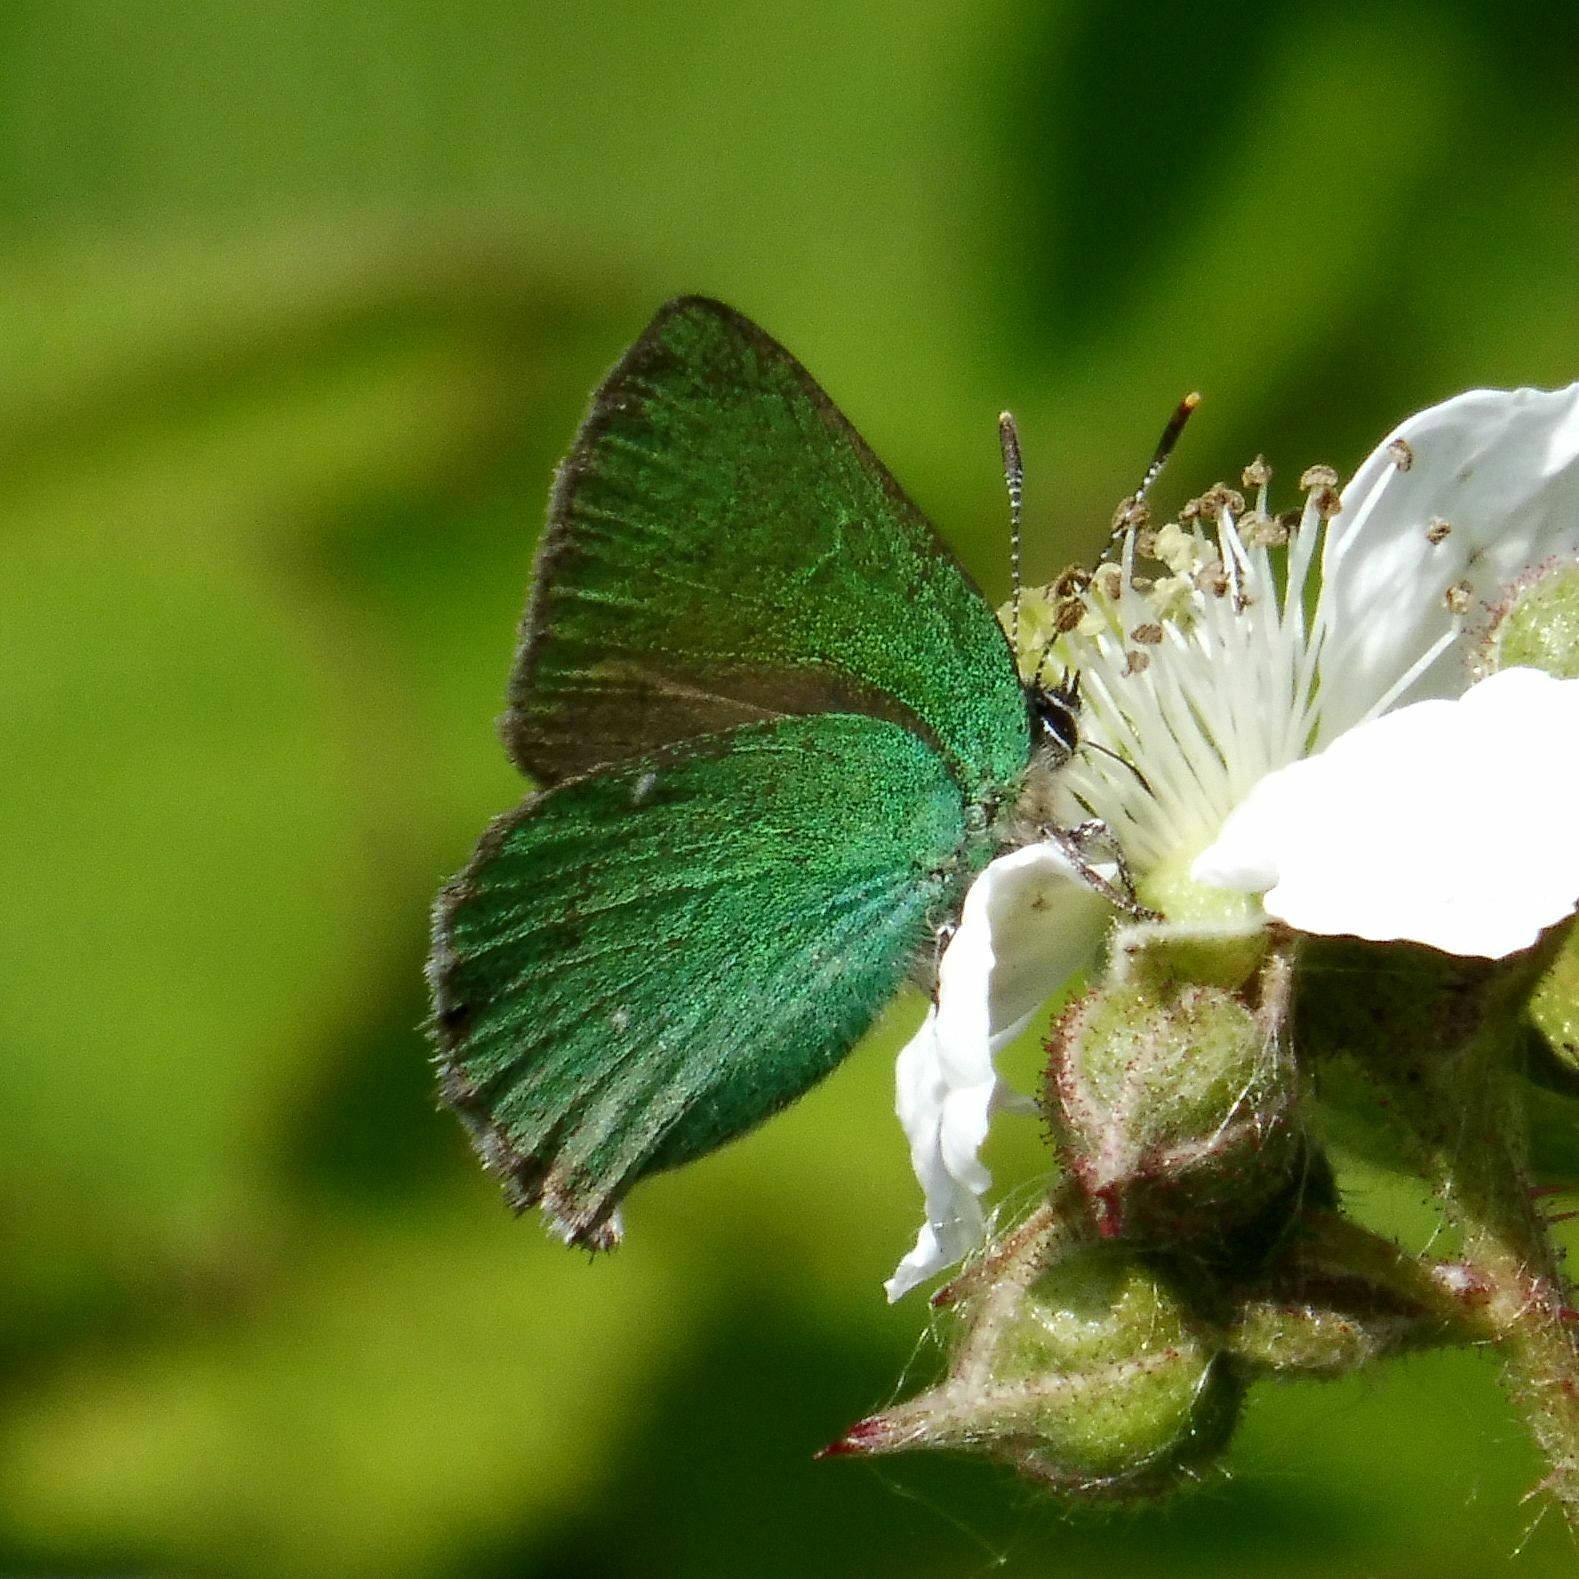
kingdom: Animalia
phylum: Arthropoda
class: Insecta
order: Lepidoptera
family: Lycaenidae
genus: Callophrys
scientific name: Callophrys rubi
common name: Green hairstreak
